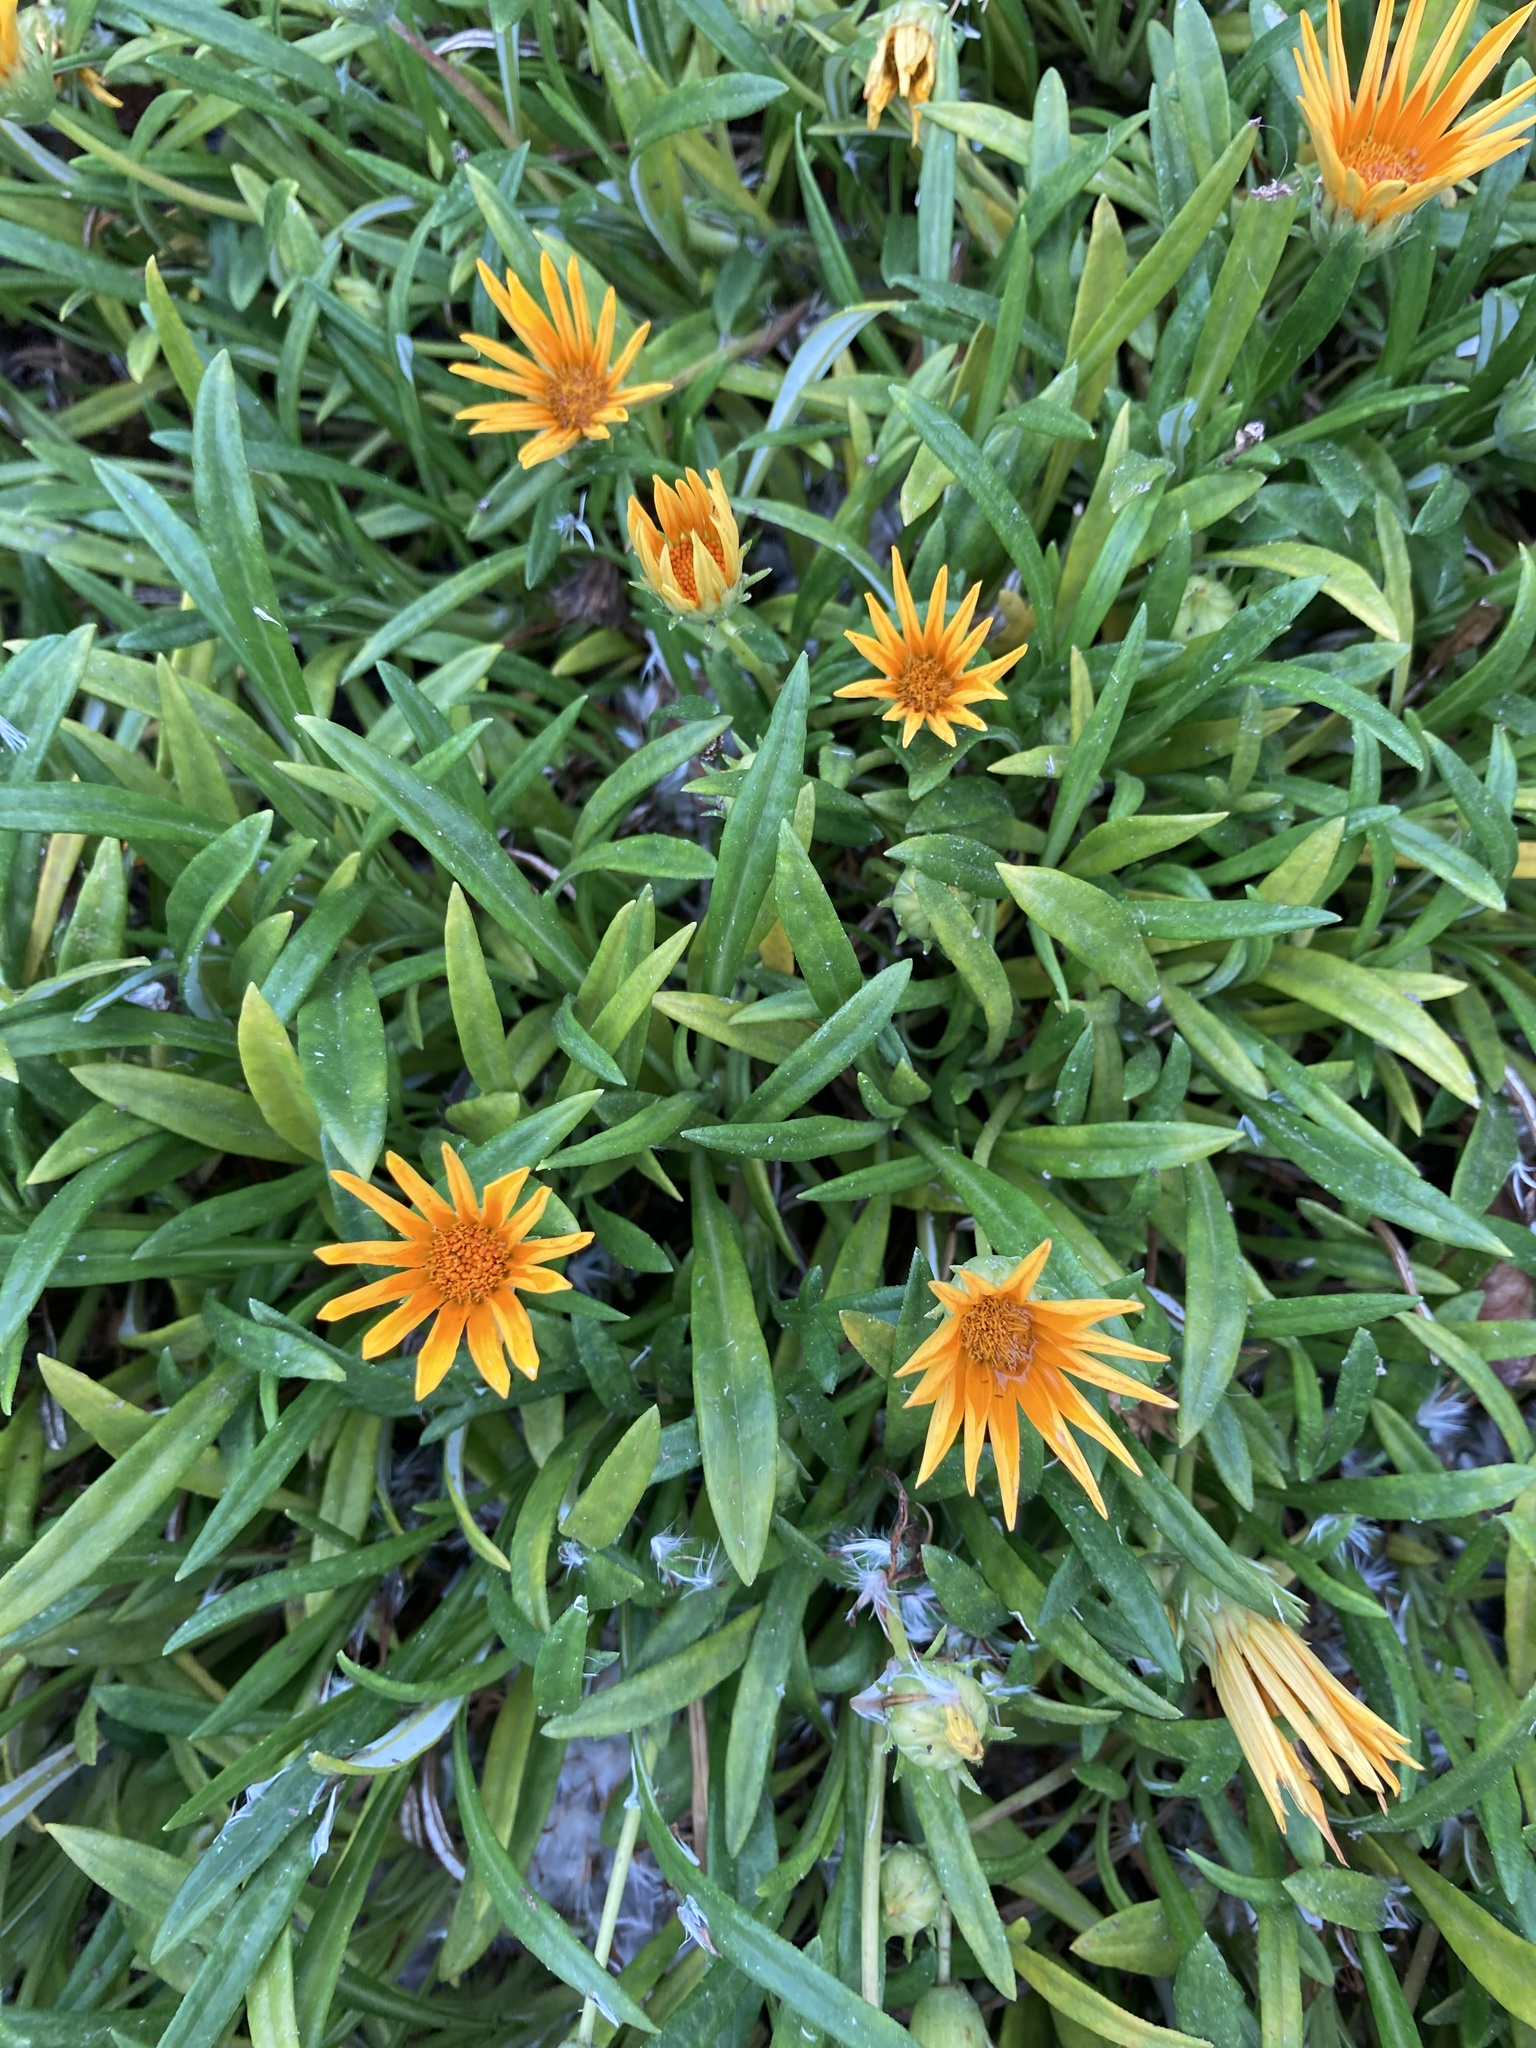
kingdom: Plantae
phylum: Tracheophyta
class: Magnoliopsida
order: Asterales
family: Asteraceae
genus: Gazania
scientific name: Gazania linearis
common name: Treasureflower
